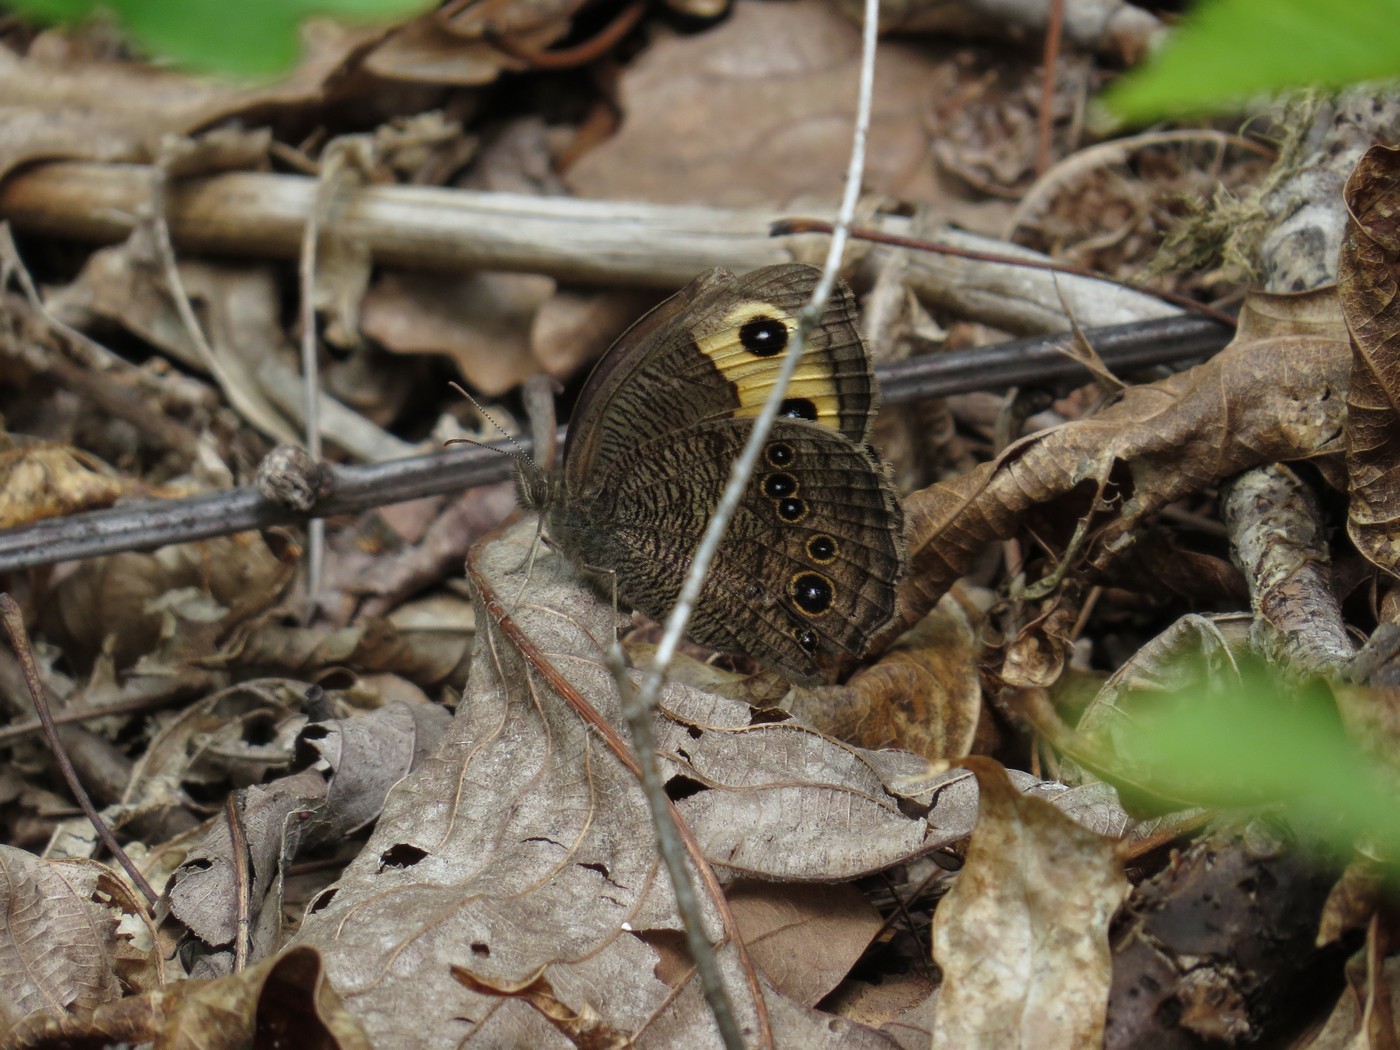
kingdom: Animalia
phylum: Arthropoda
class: Insecta
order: Lepidoptera
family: Nymphalidae
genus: Cercyonis
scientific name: Cercyonis pegala
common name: Common wood-nymph
